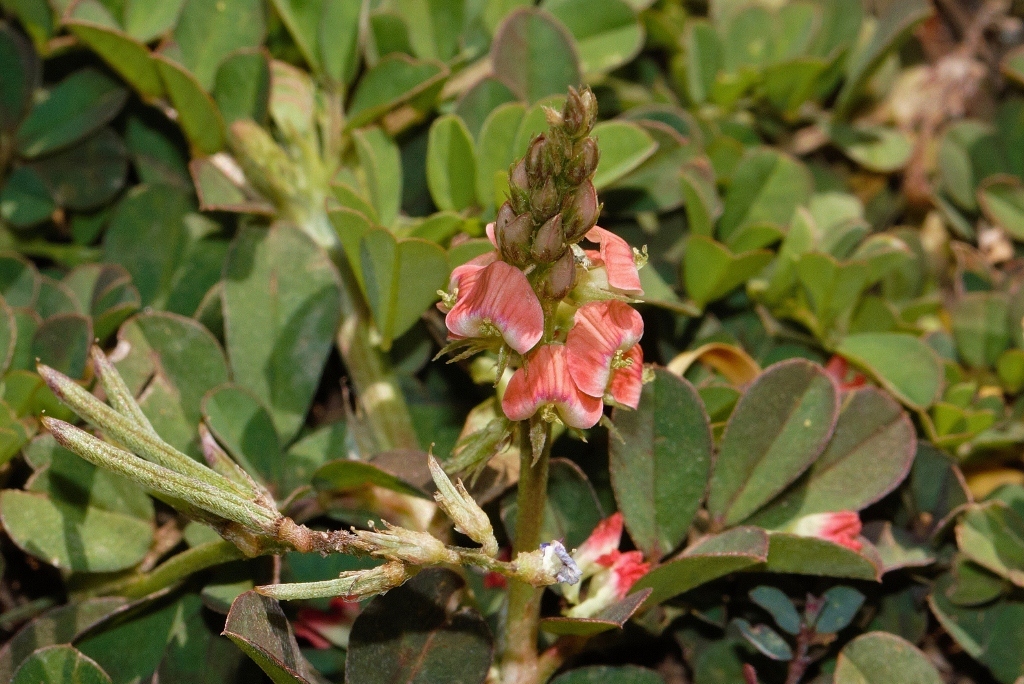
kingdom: Plantae
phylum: Tracheophyta
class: Magnoliopsida
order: Fabales
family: Fabaceae
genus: Indigofera
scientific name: Indigofera spicata
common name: Creeping indigo
